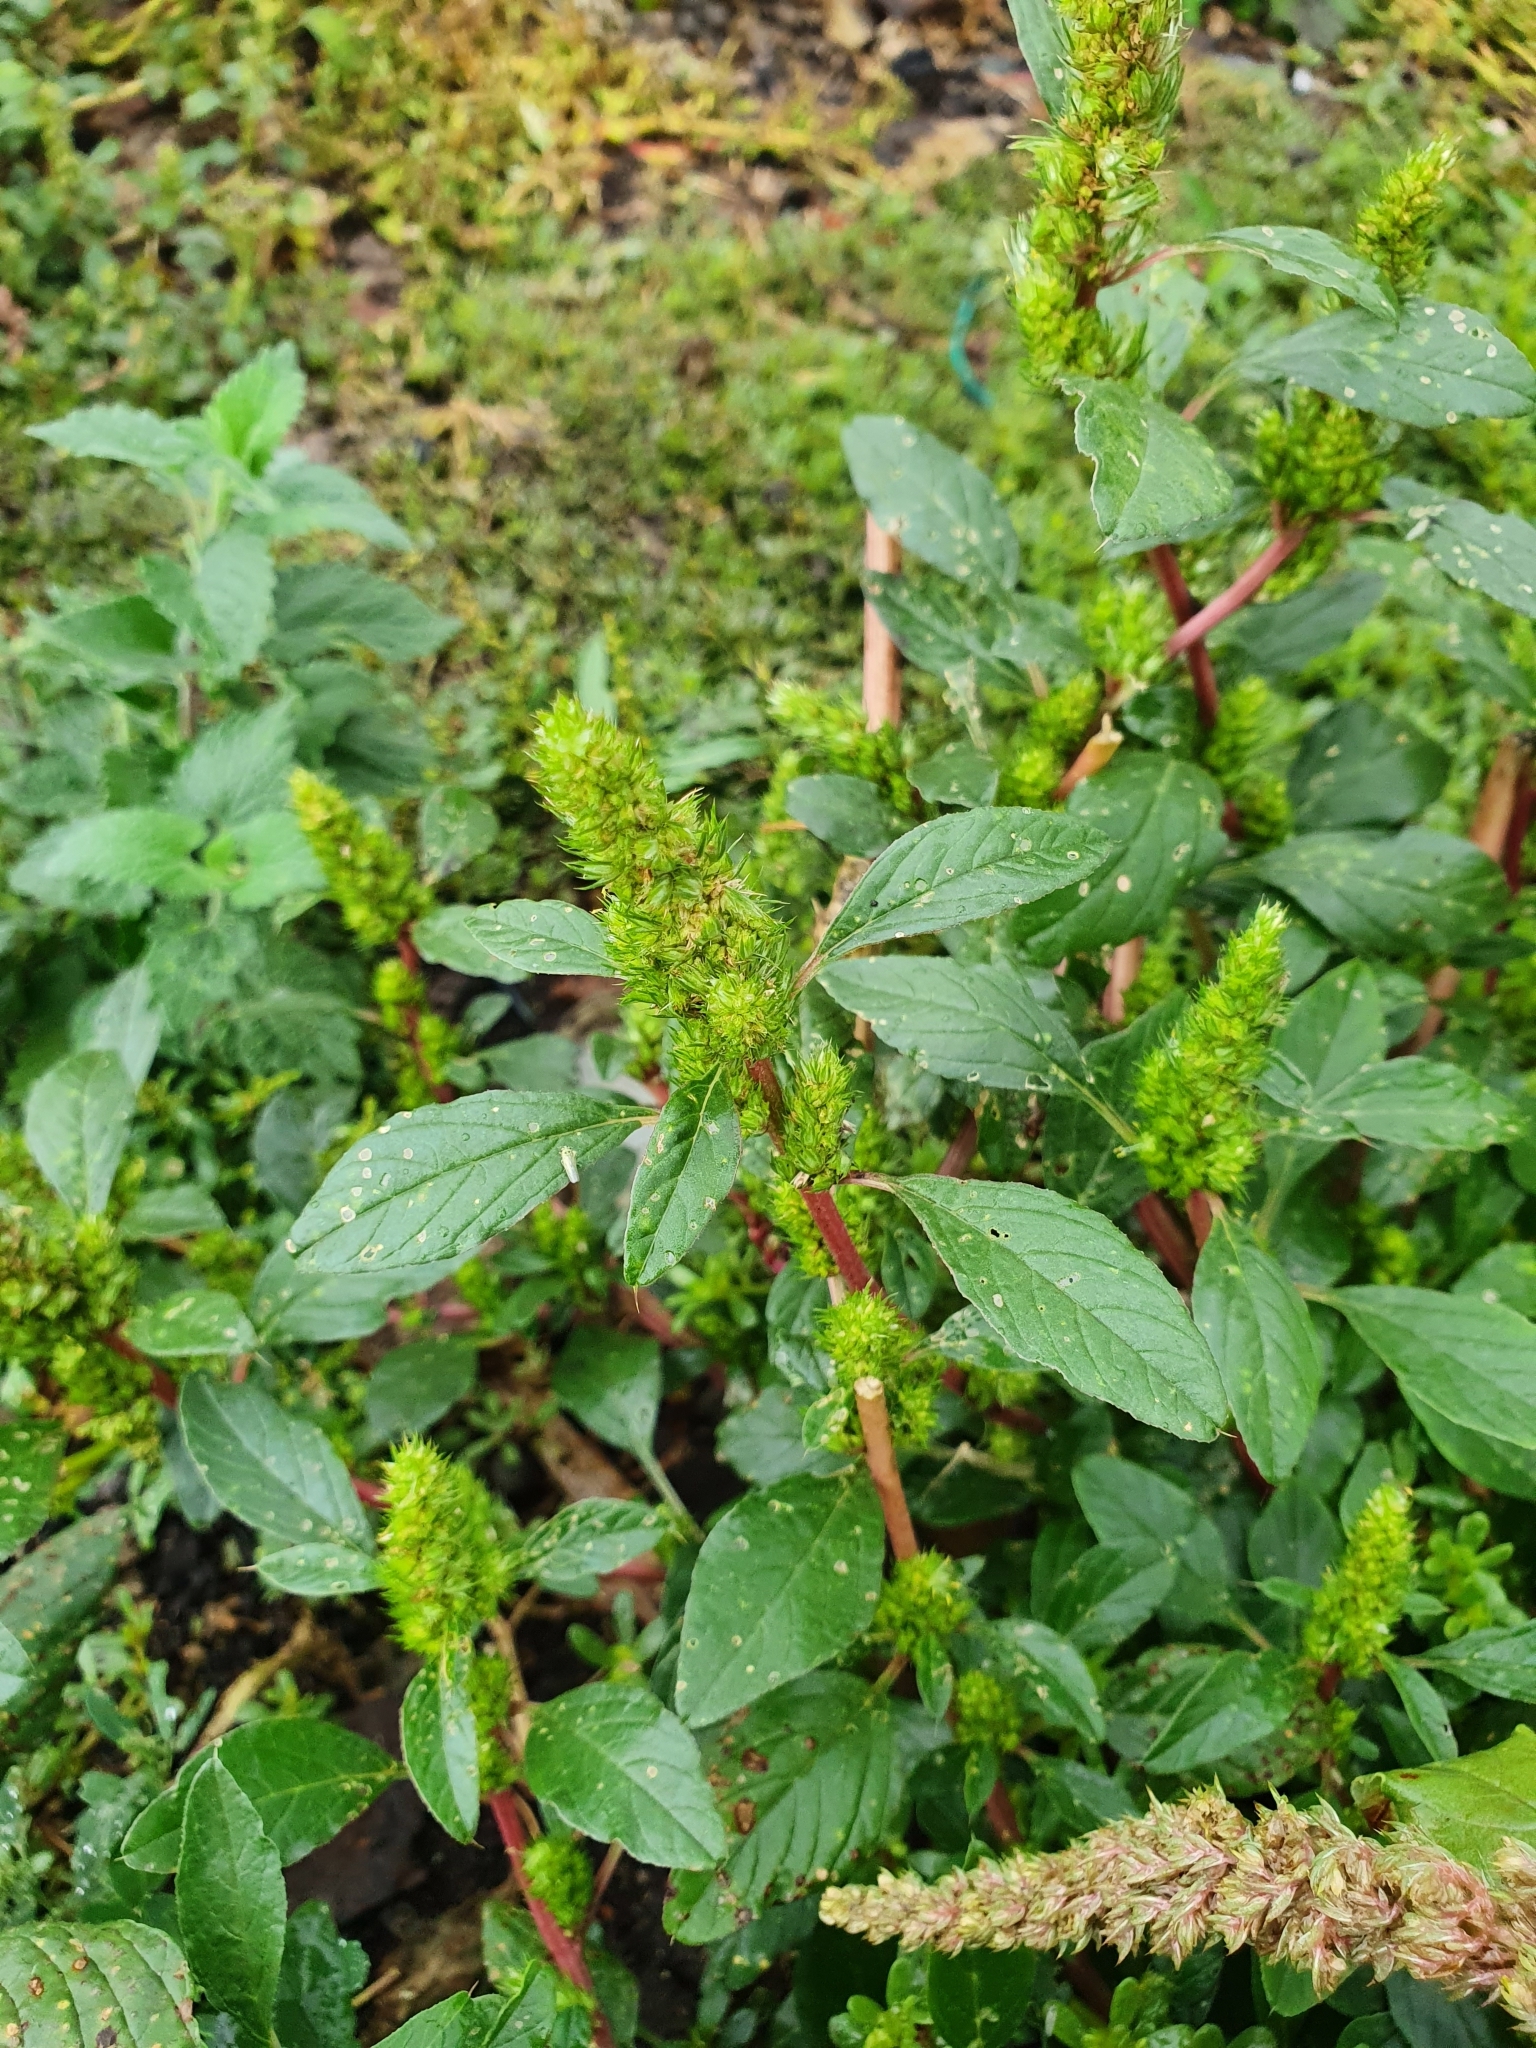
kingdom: Plantae
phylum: Tracheophyta
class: Magnoliopsida
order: Caryophyllales
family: Amaranthaceae
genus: Amaranthus
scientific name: Amaranthus retroflexus
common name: Redroot amaranth
